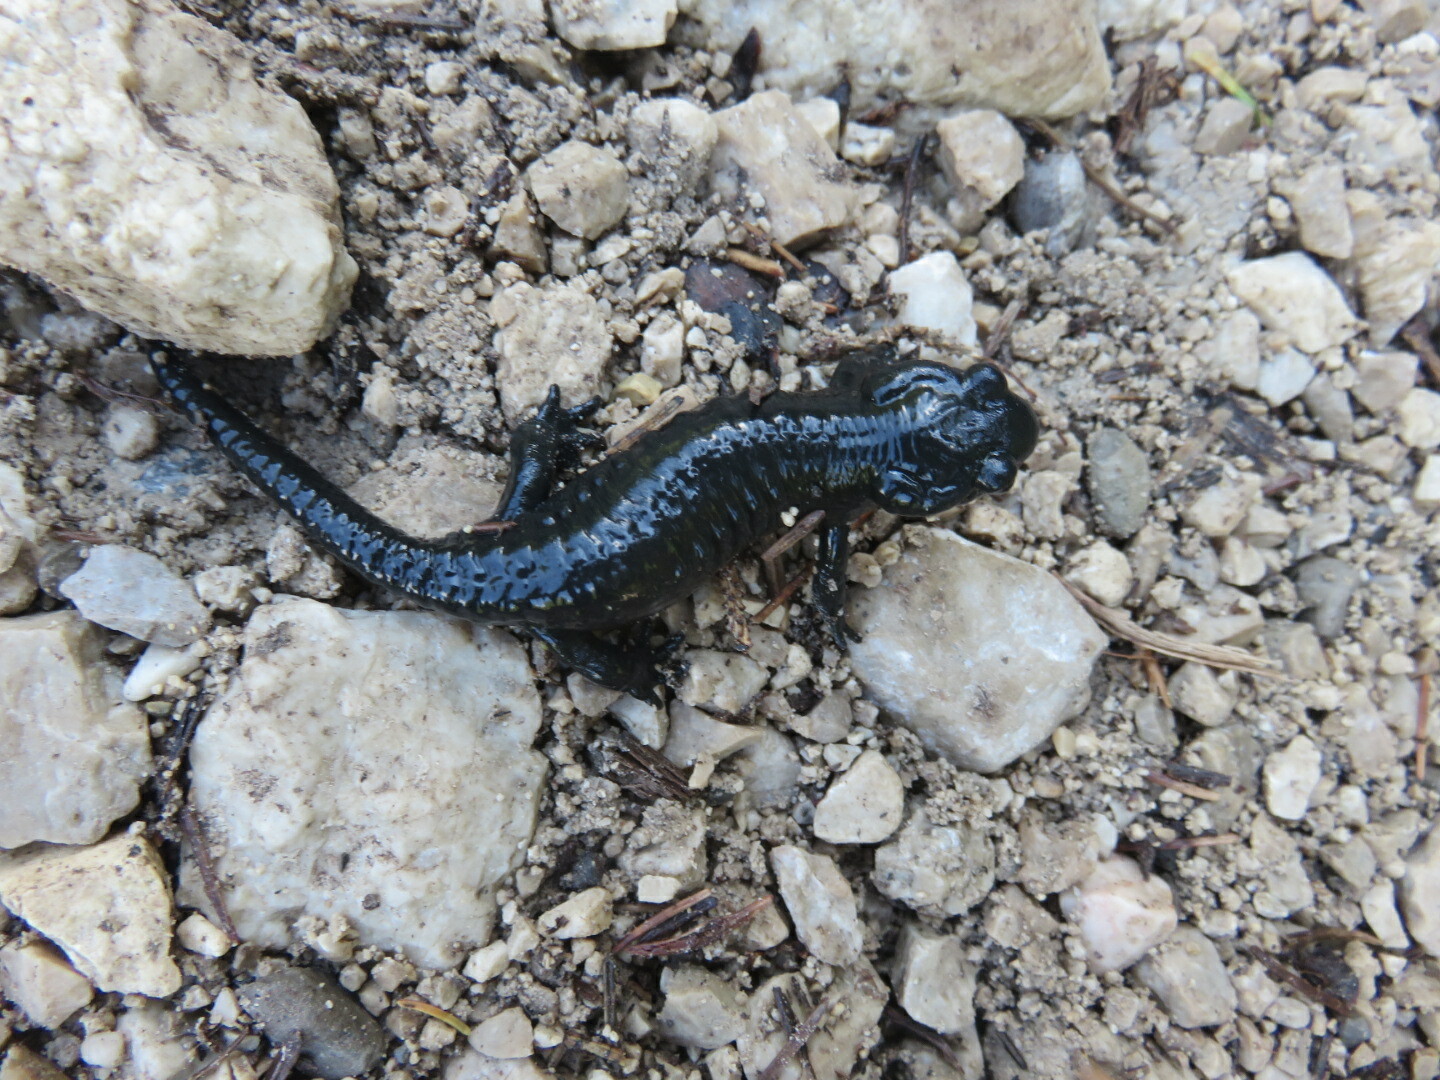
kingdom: Animalia
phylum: Chordata
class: Amphibia
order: Caudata
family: Salamandridae
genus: Salamandra
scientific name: Salamandra atra
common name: Alpine salamander
